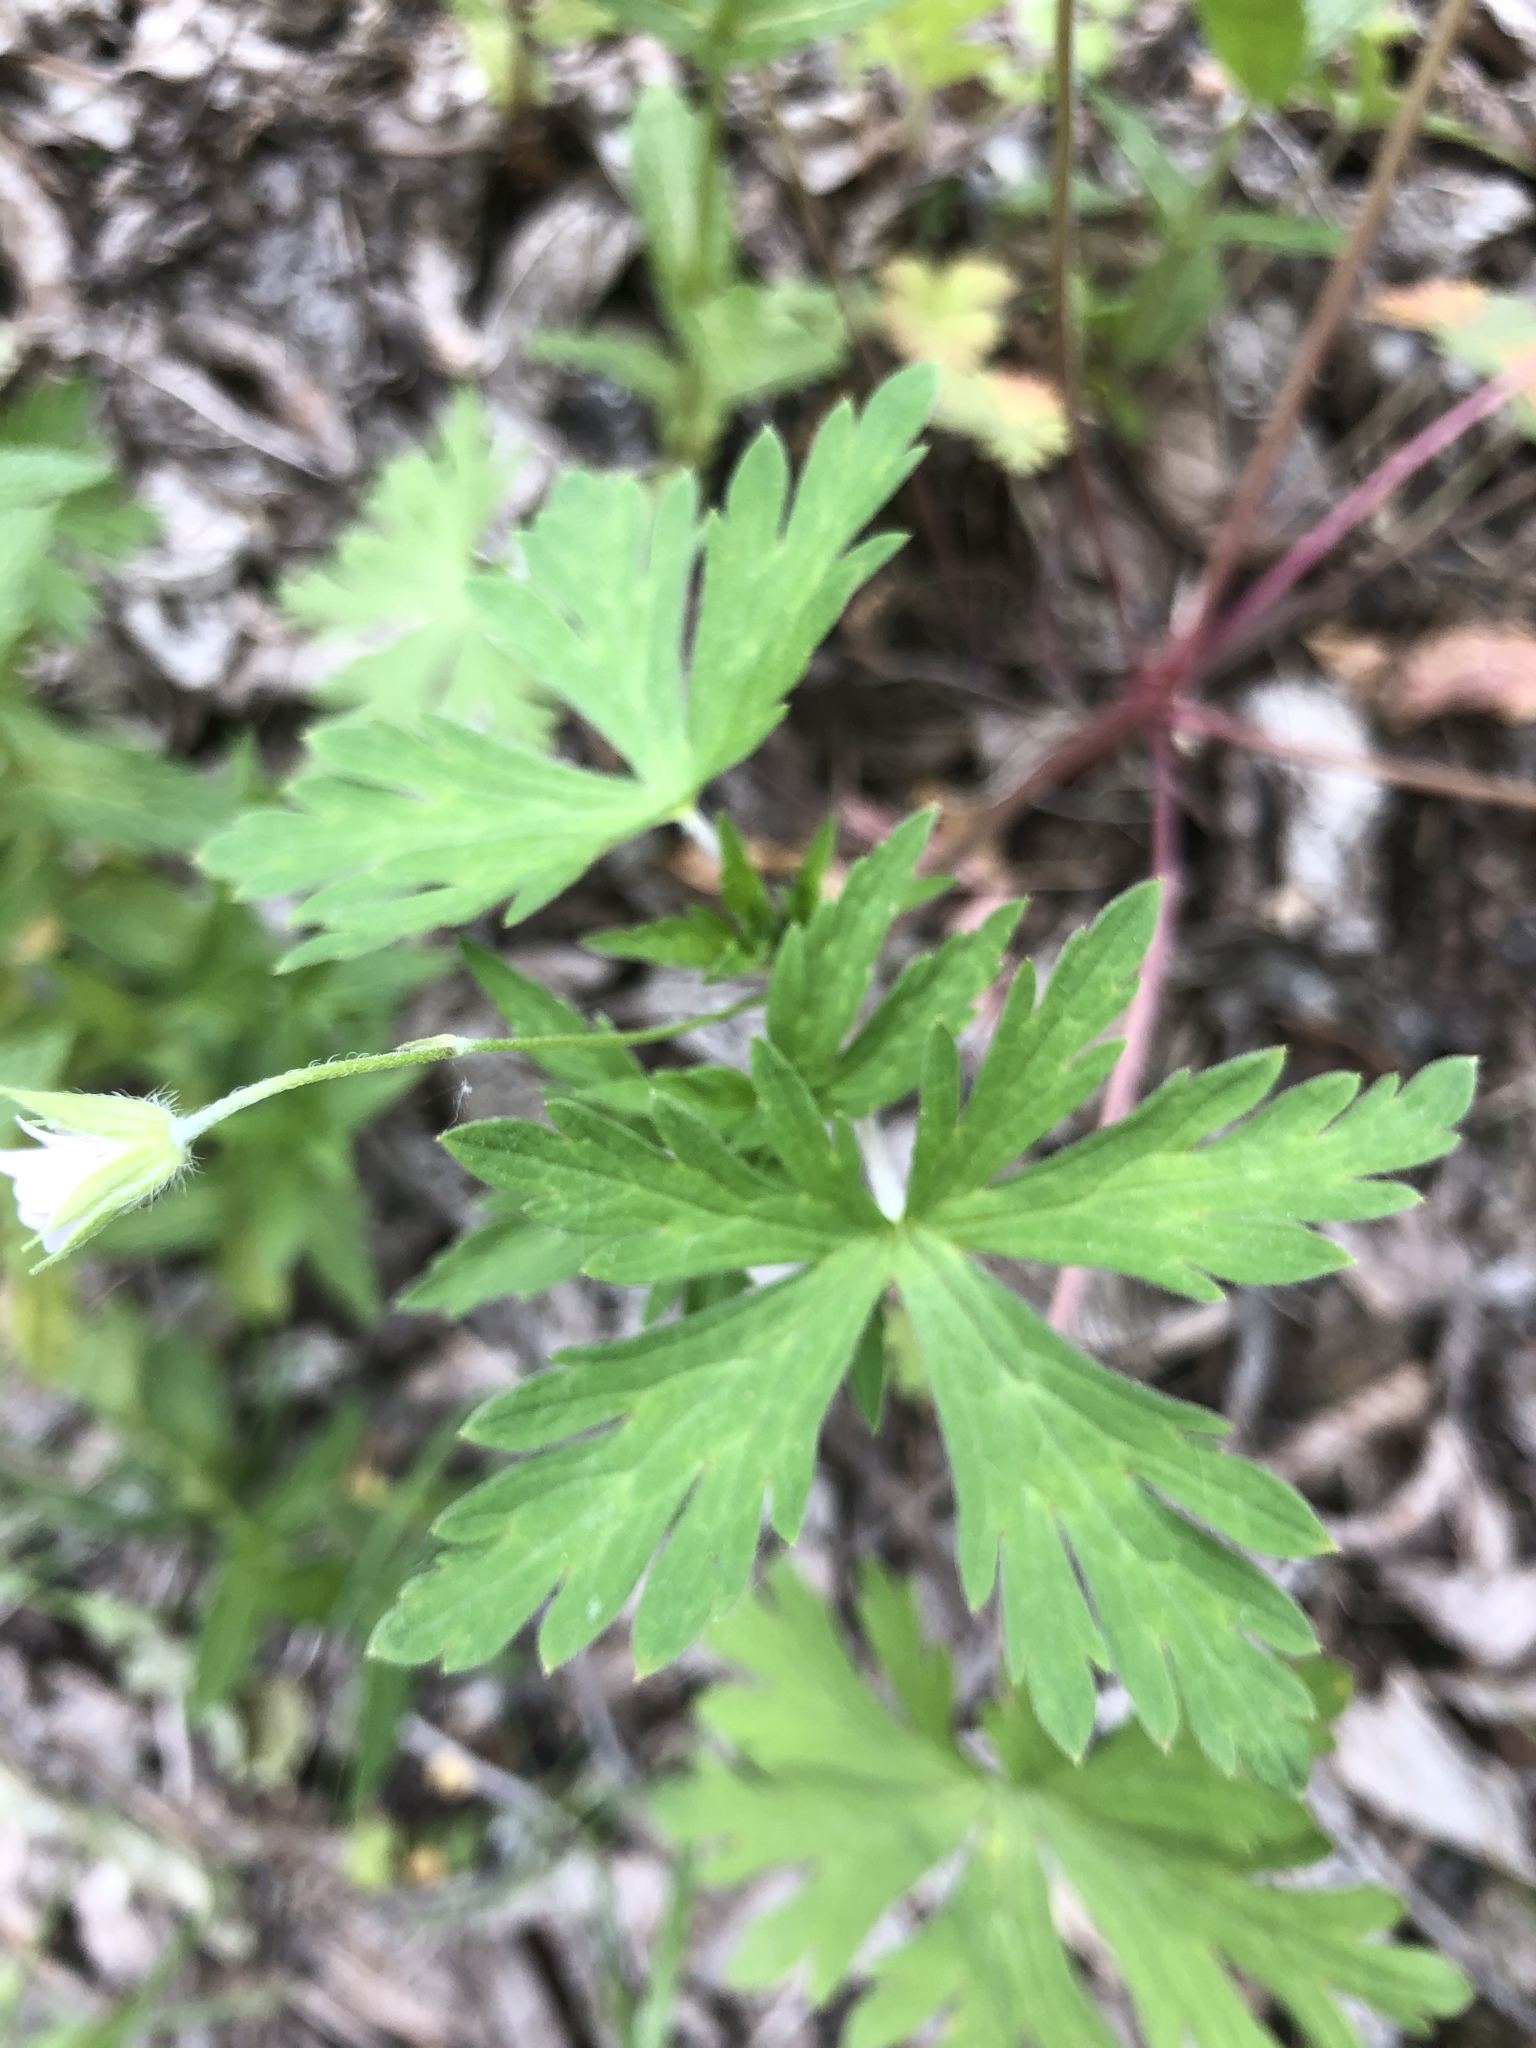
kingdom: Plantae
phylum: Tracheophyta
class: Magnoliopsida
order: Geraniales
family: Geraniaceae
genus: Geranium
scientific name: Geranium sibiricum
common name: Siberian crane's-bill
